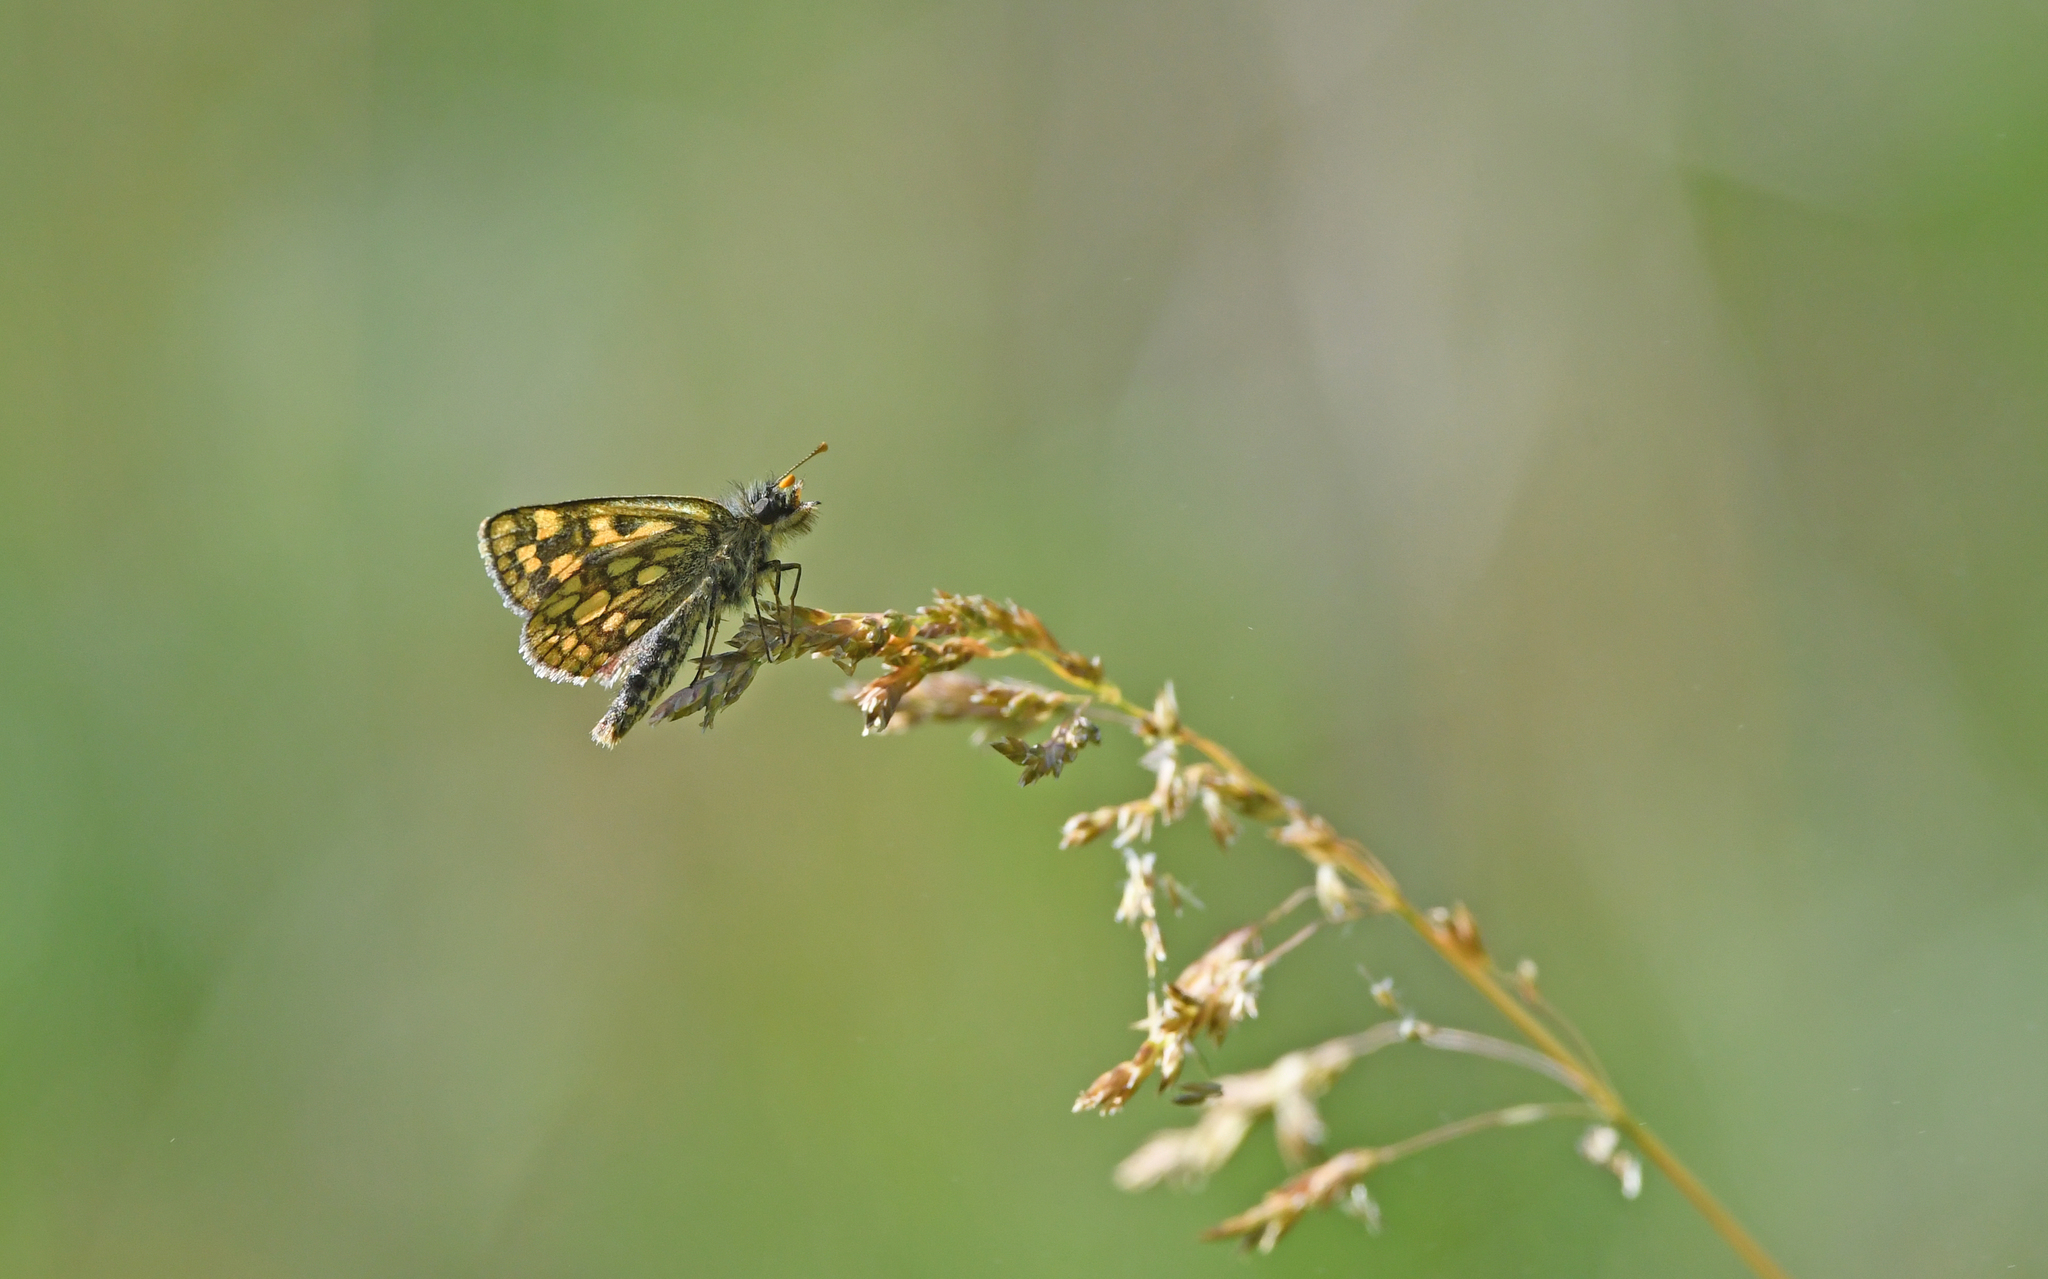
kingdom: Animalia
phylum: Arthropoda
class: Insecta
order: Lepidoptera
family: Hesperiidae
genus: Carterocephalus
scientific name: Carterocephalus palaemon
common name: Chequered skipper
